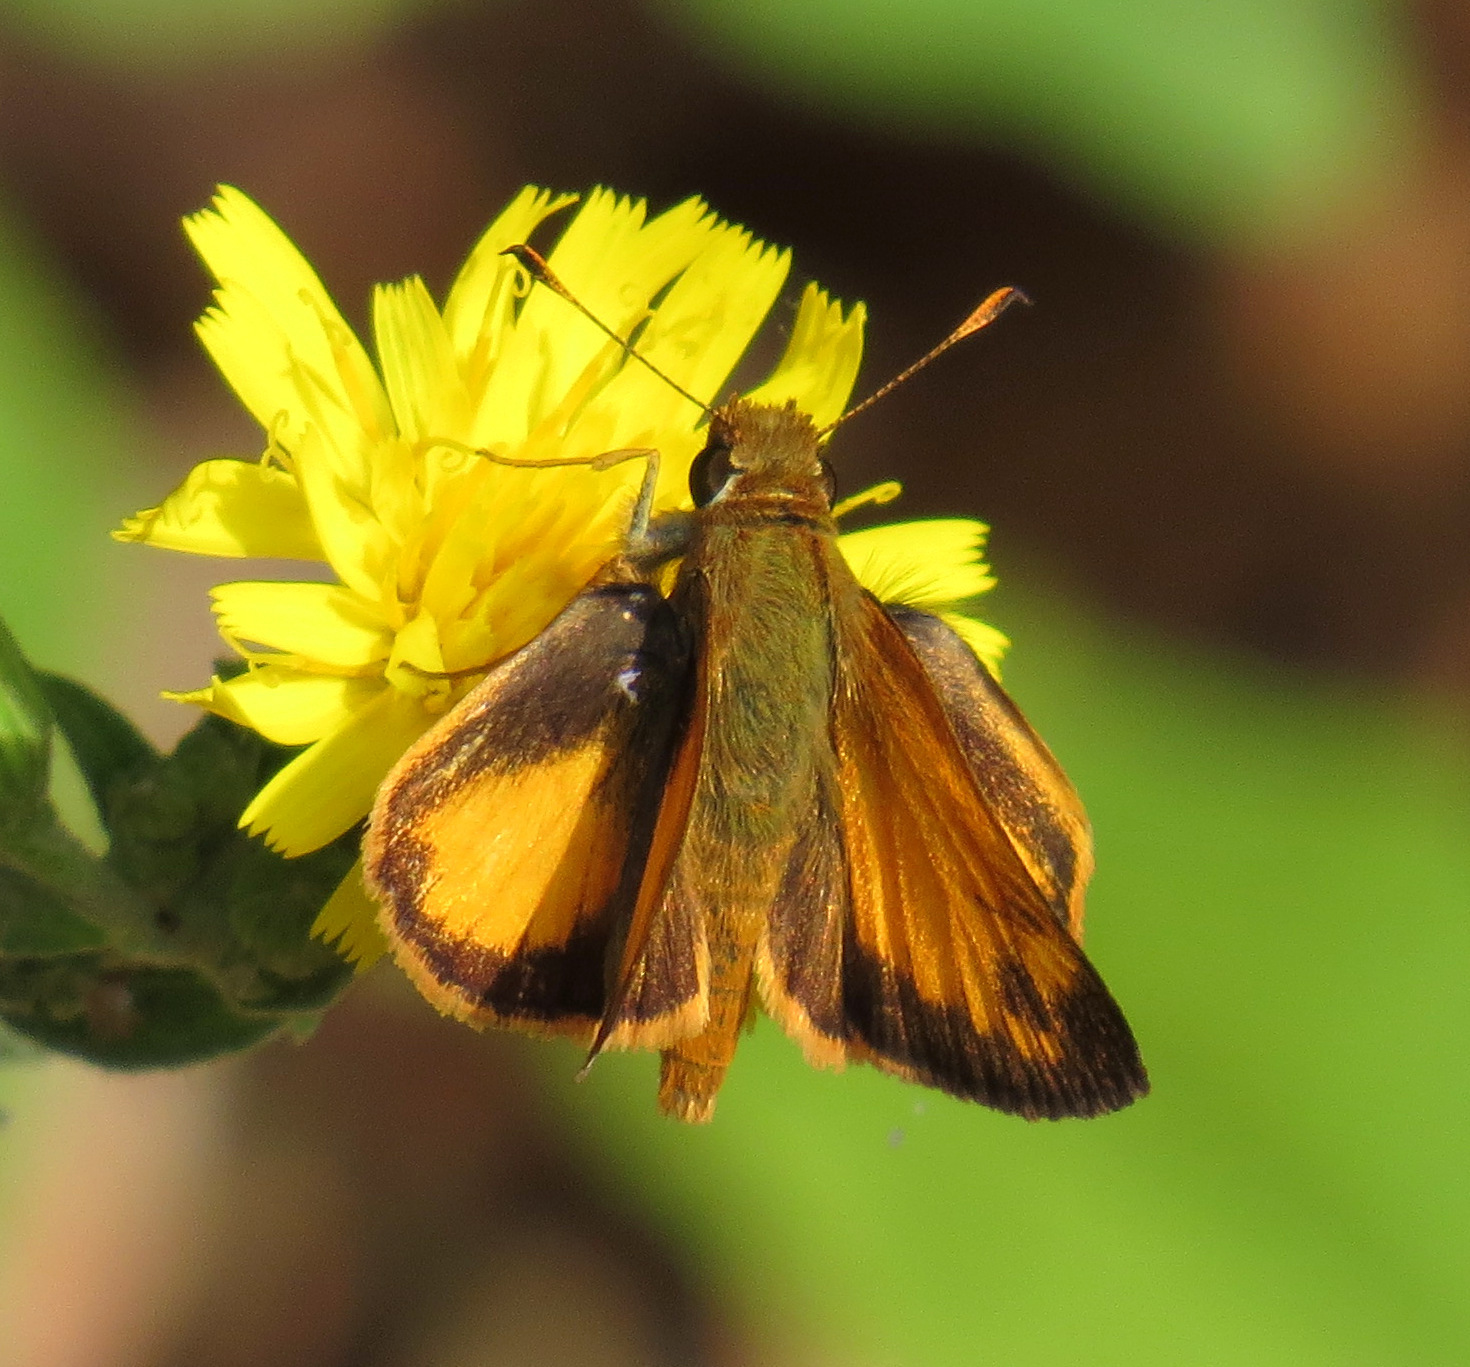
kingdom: Animalia
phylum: Arthropoda
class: Insecta
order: Lepidoptera
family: Hesperiidae
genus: Lon
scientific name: Lon zabulon
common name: Zabulon skipper
